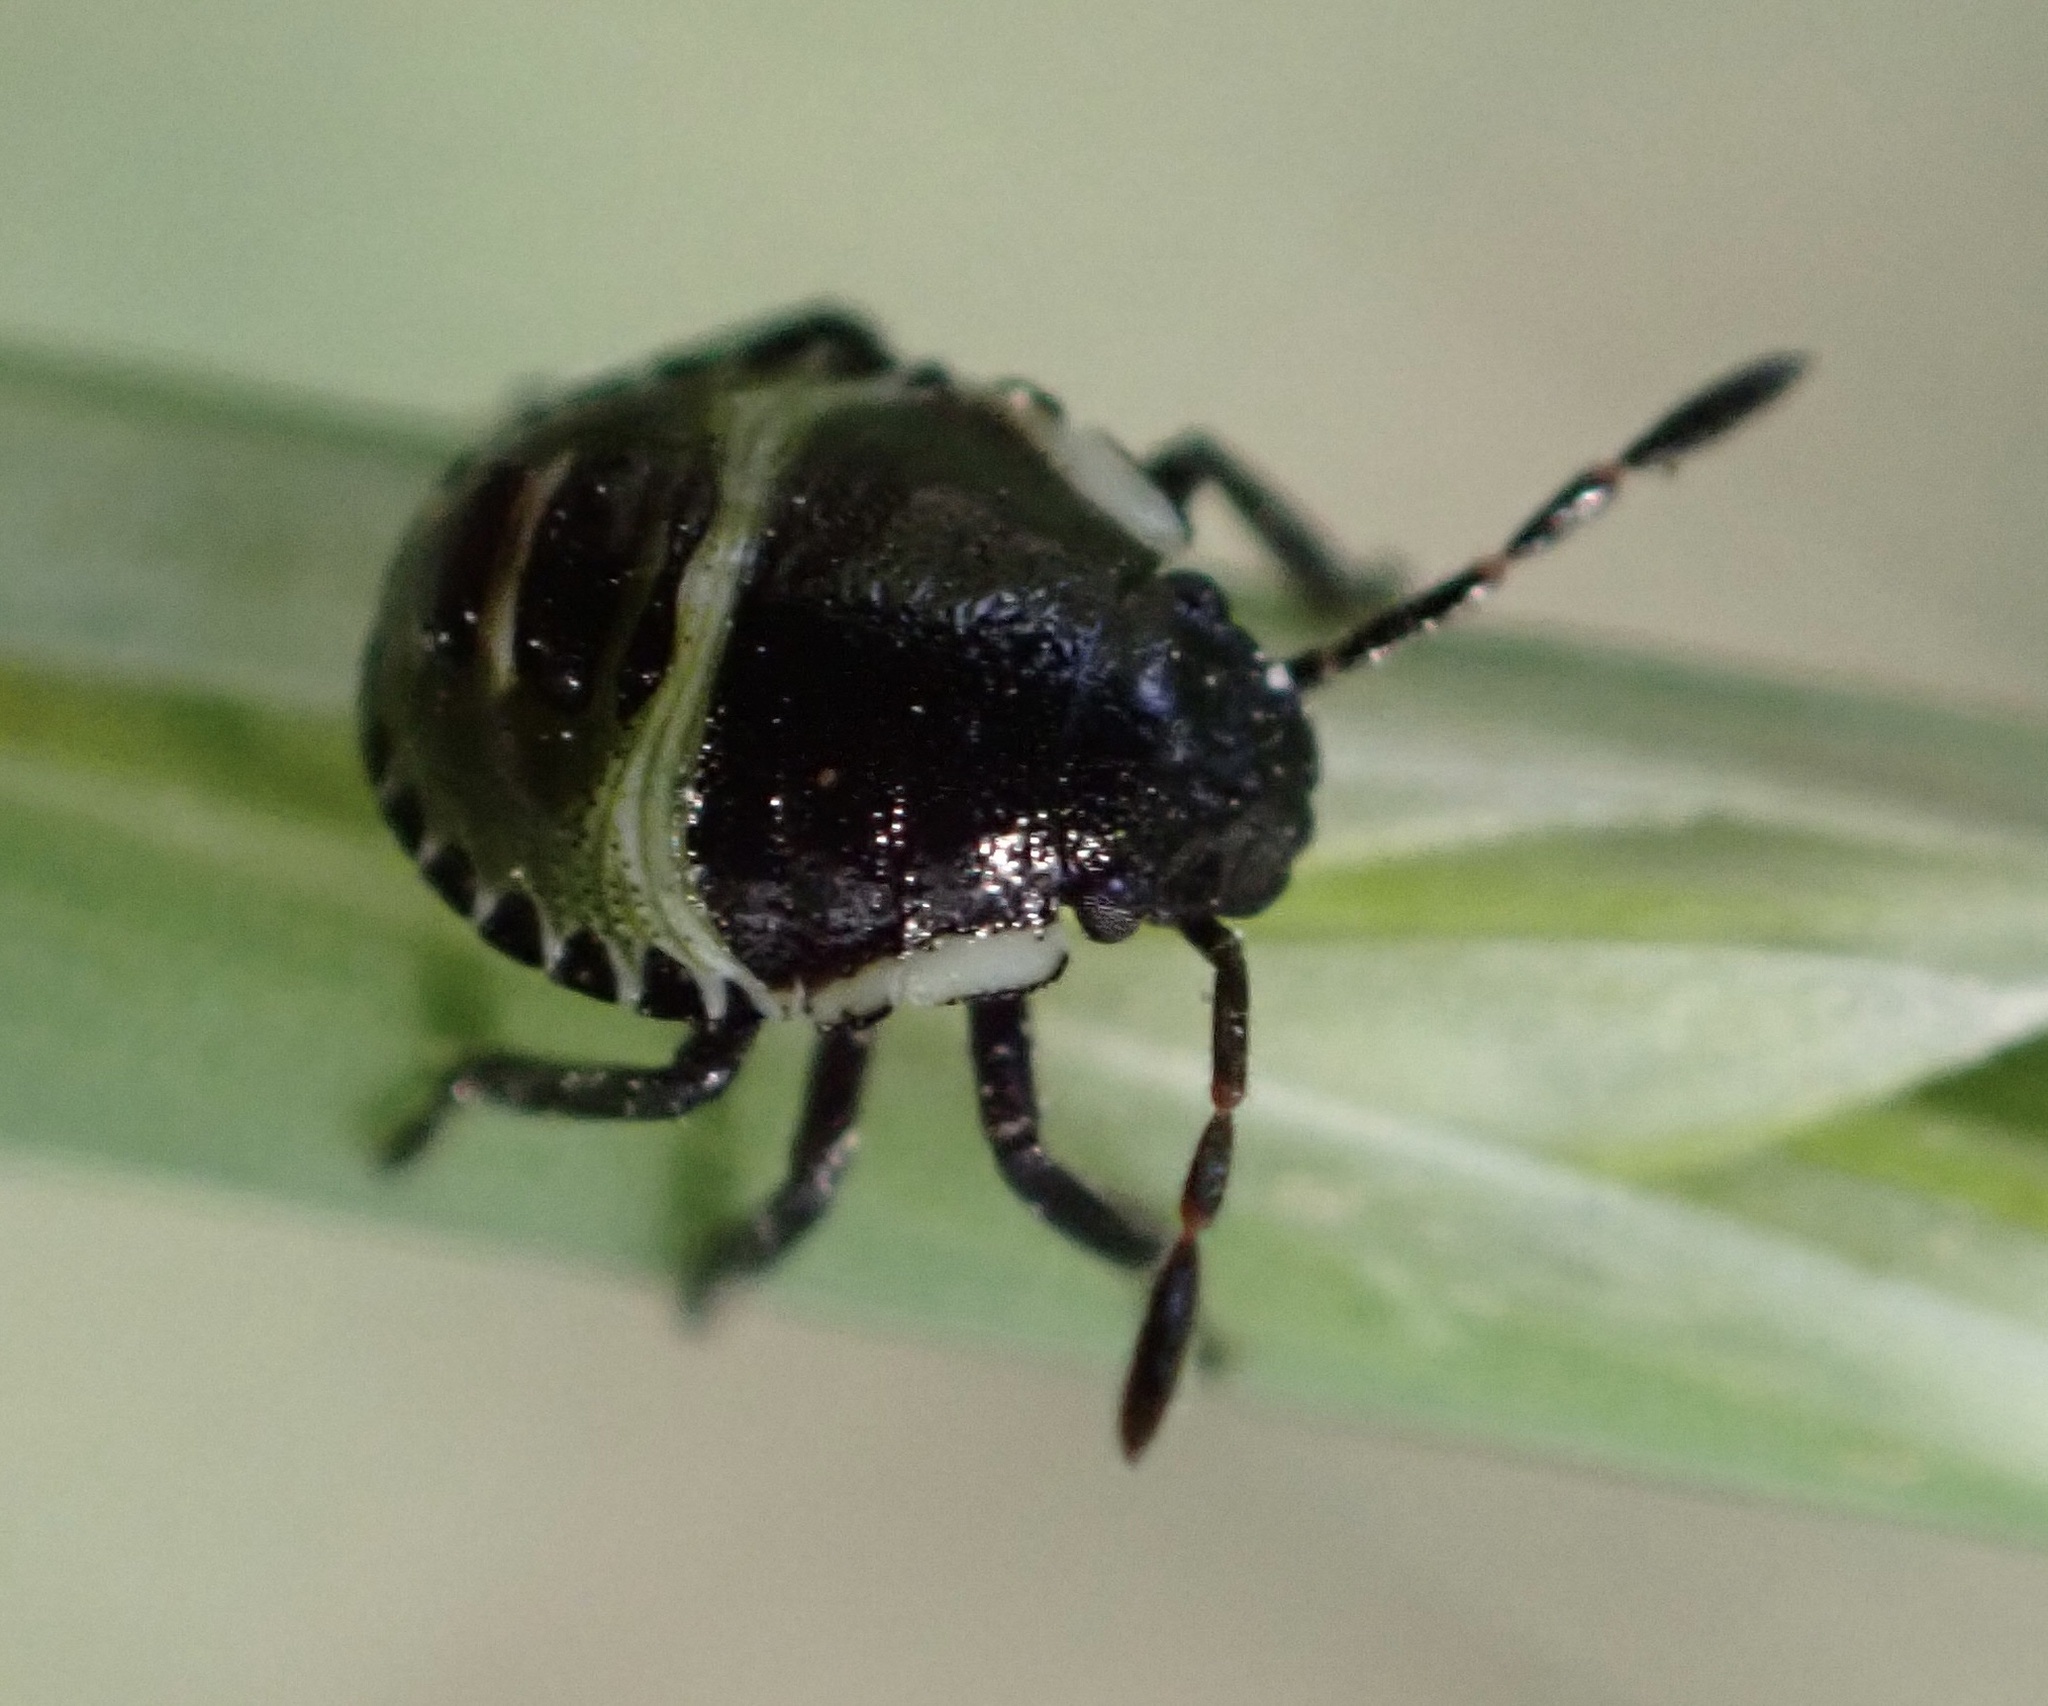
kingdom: Animalia
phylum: Arthropoda
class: Insecta
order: Hemiptera
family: Pentatomidae
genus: Palomena
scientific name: Palomena prasina
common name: Green shieldbug
